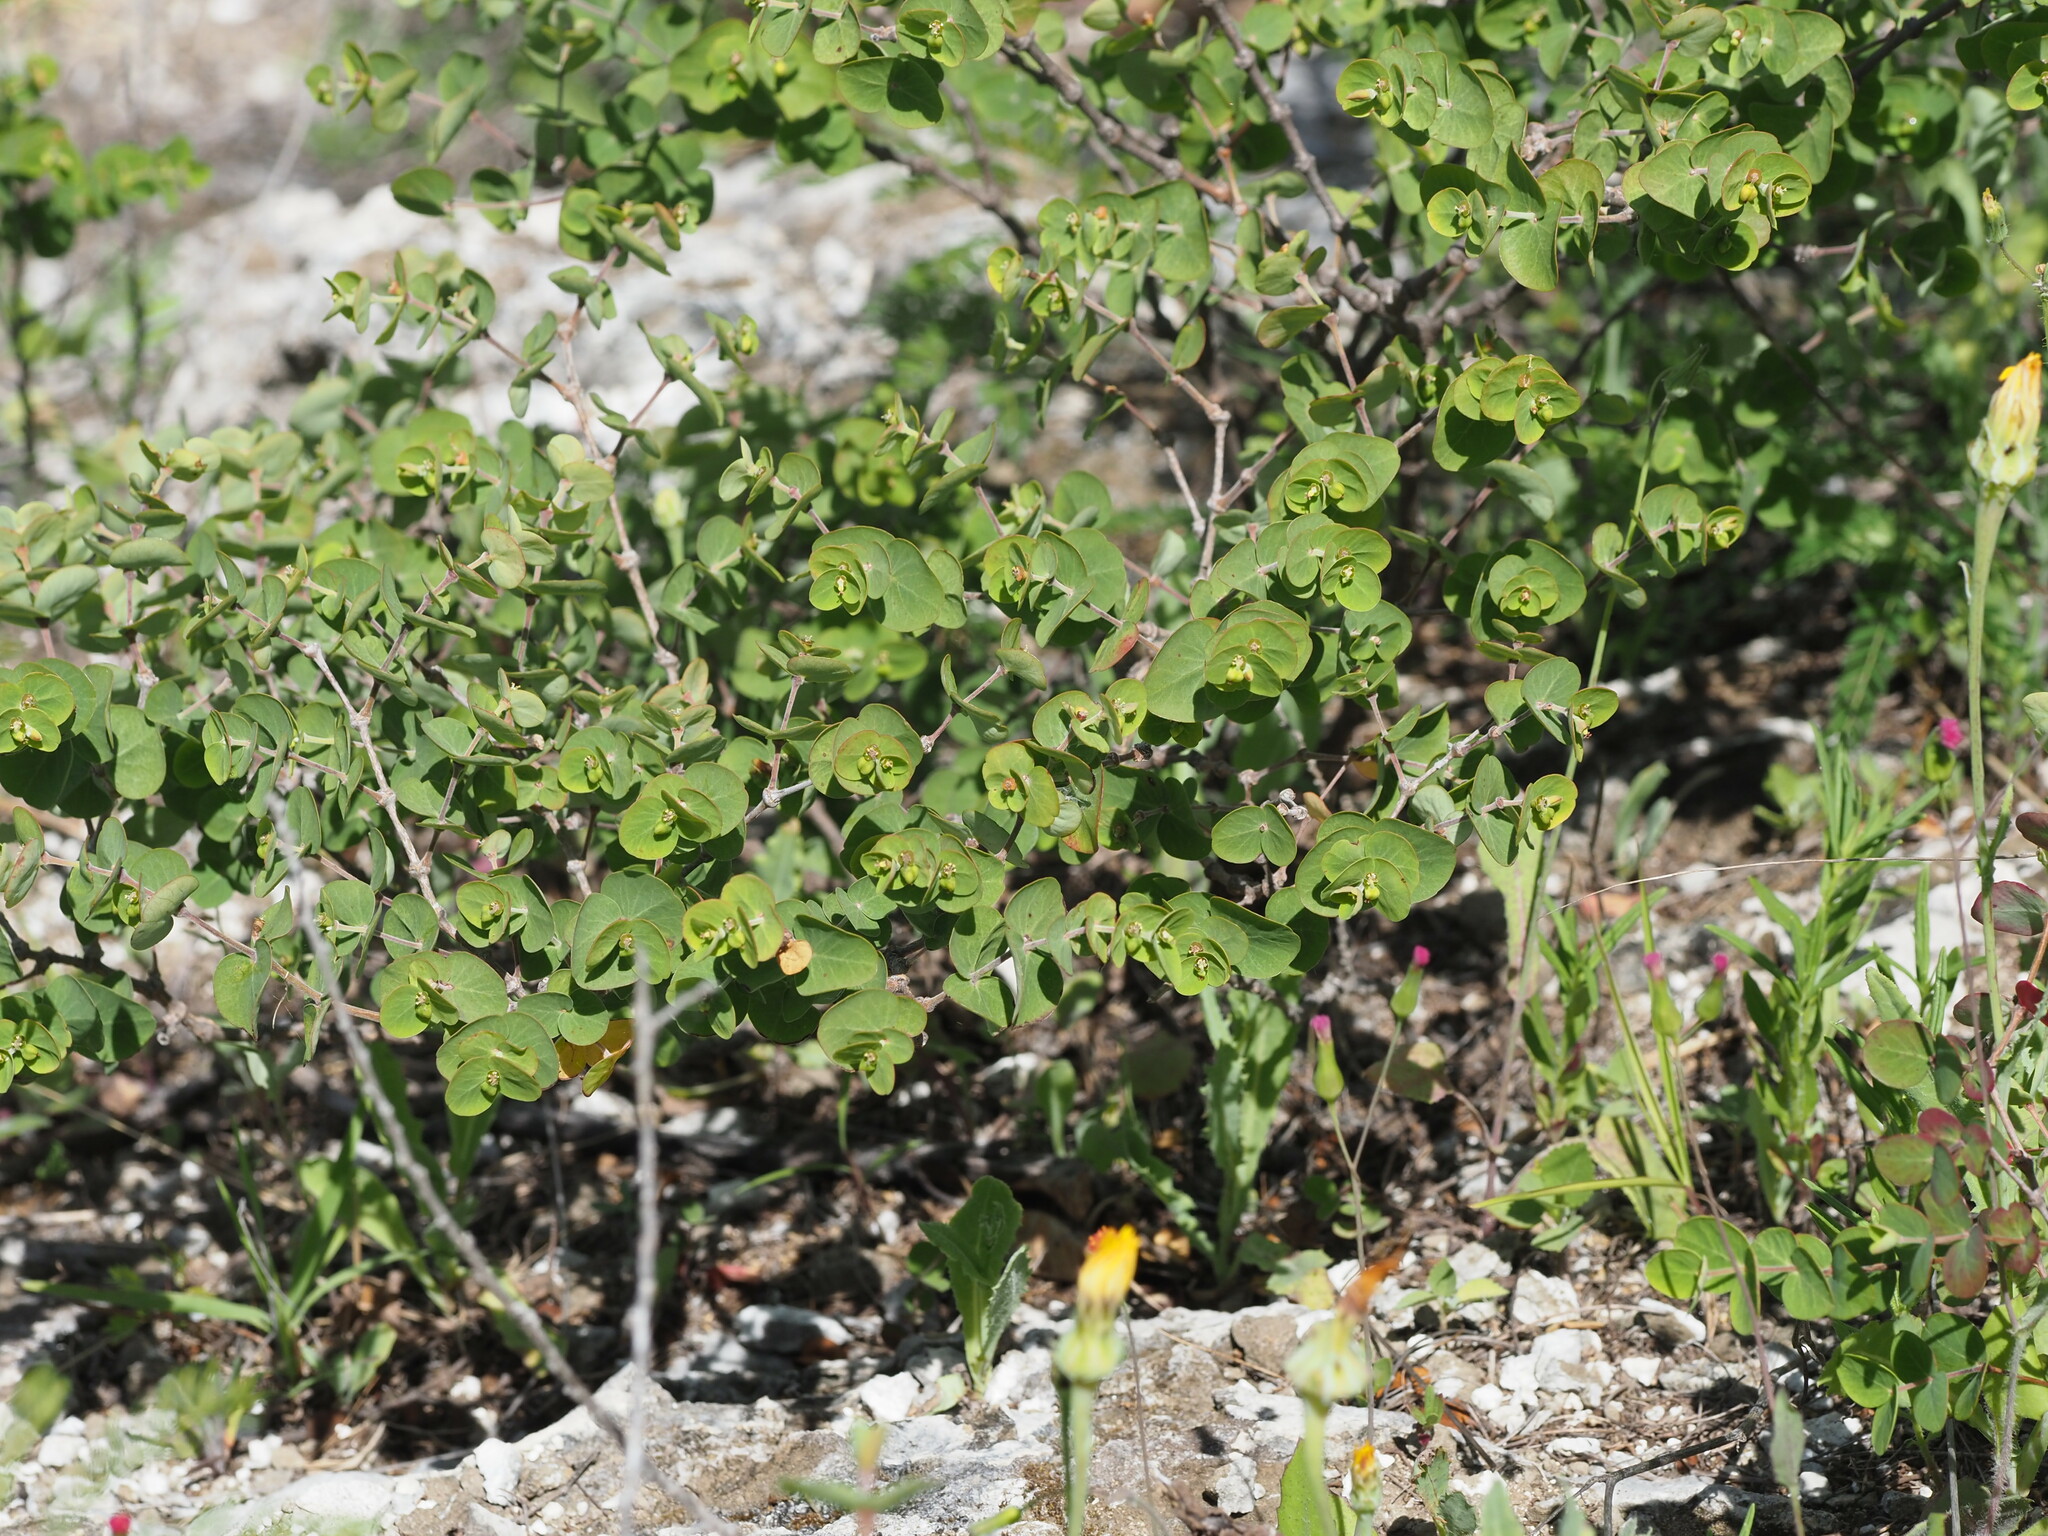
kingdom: Plantae
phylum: Tracheophyta
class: Magnoliopsida
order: Malpighiales
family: Euphorbiaceae
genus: Euphorbia
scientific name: Euphorbia degeneri
